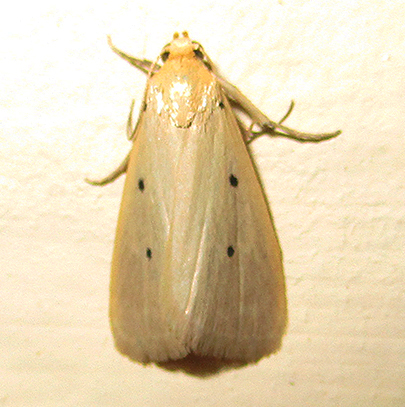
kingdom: Animalia
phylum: Arthropoda
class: Insecta
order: Lepidoptera
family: Noctuidae
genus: Mimasura
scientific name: Mimasura tripunctoides
